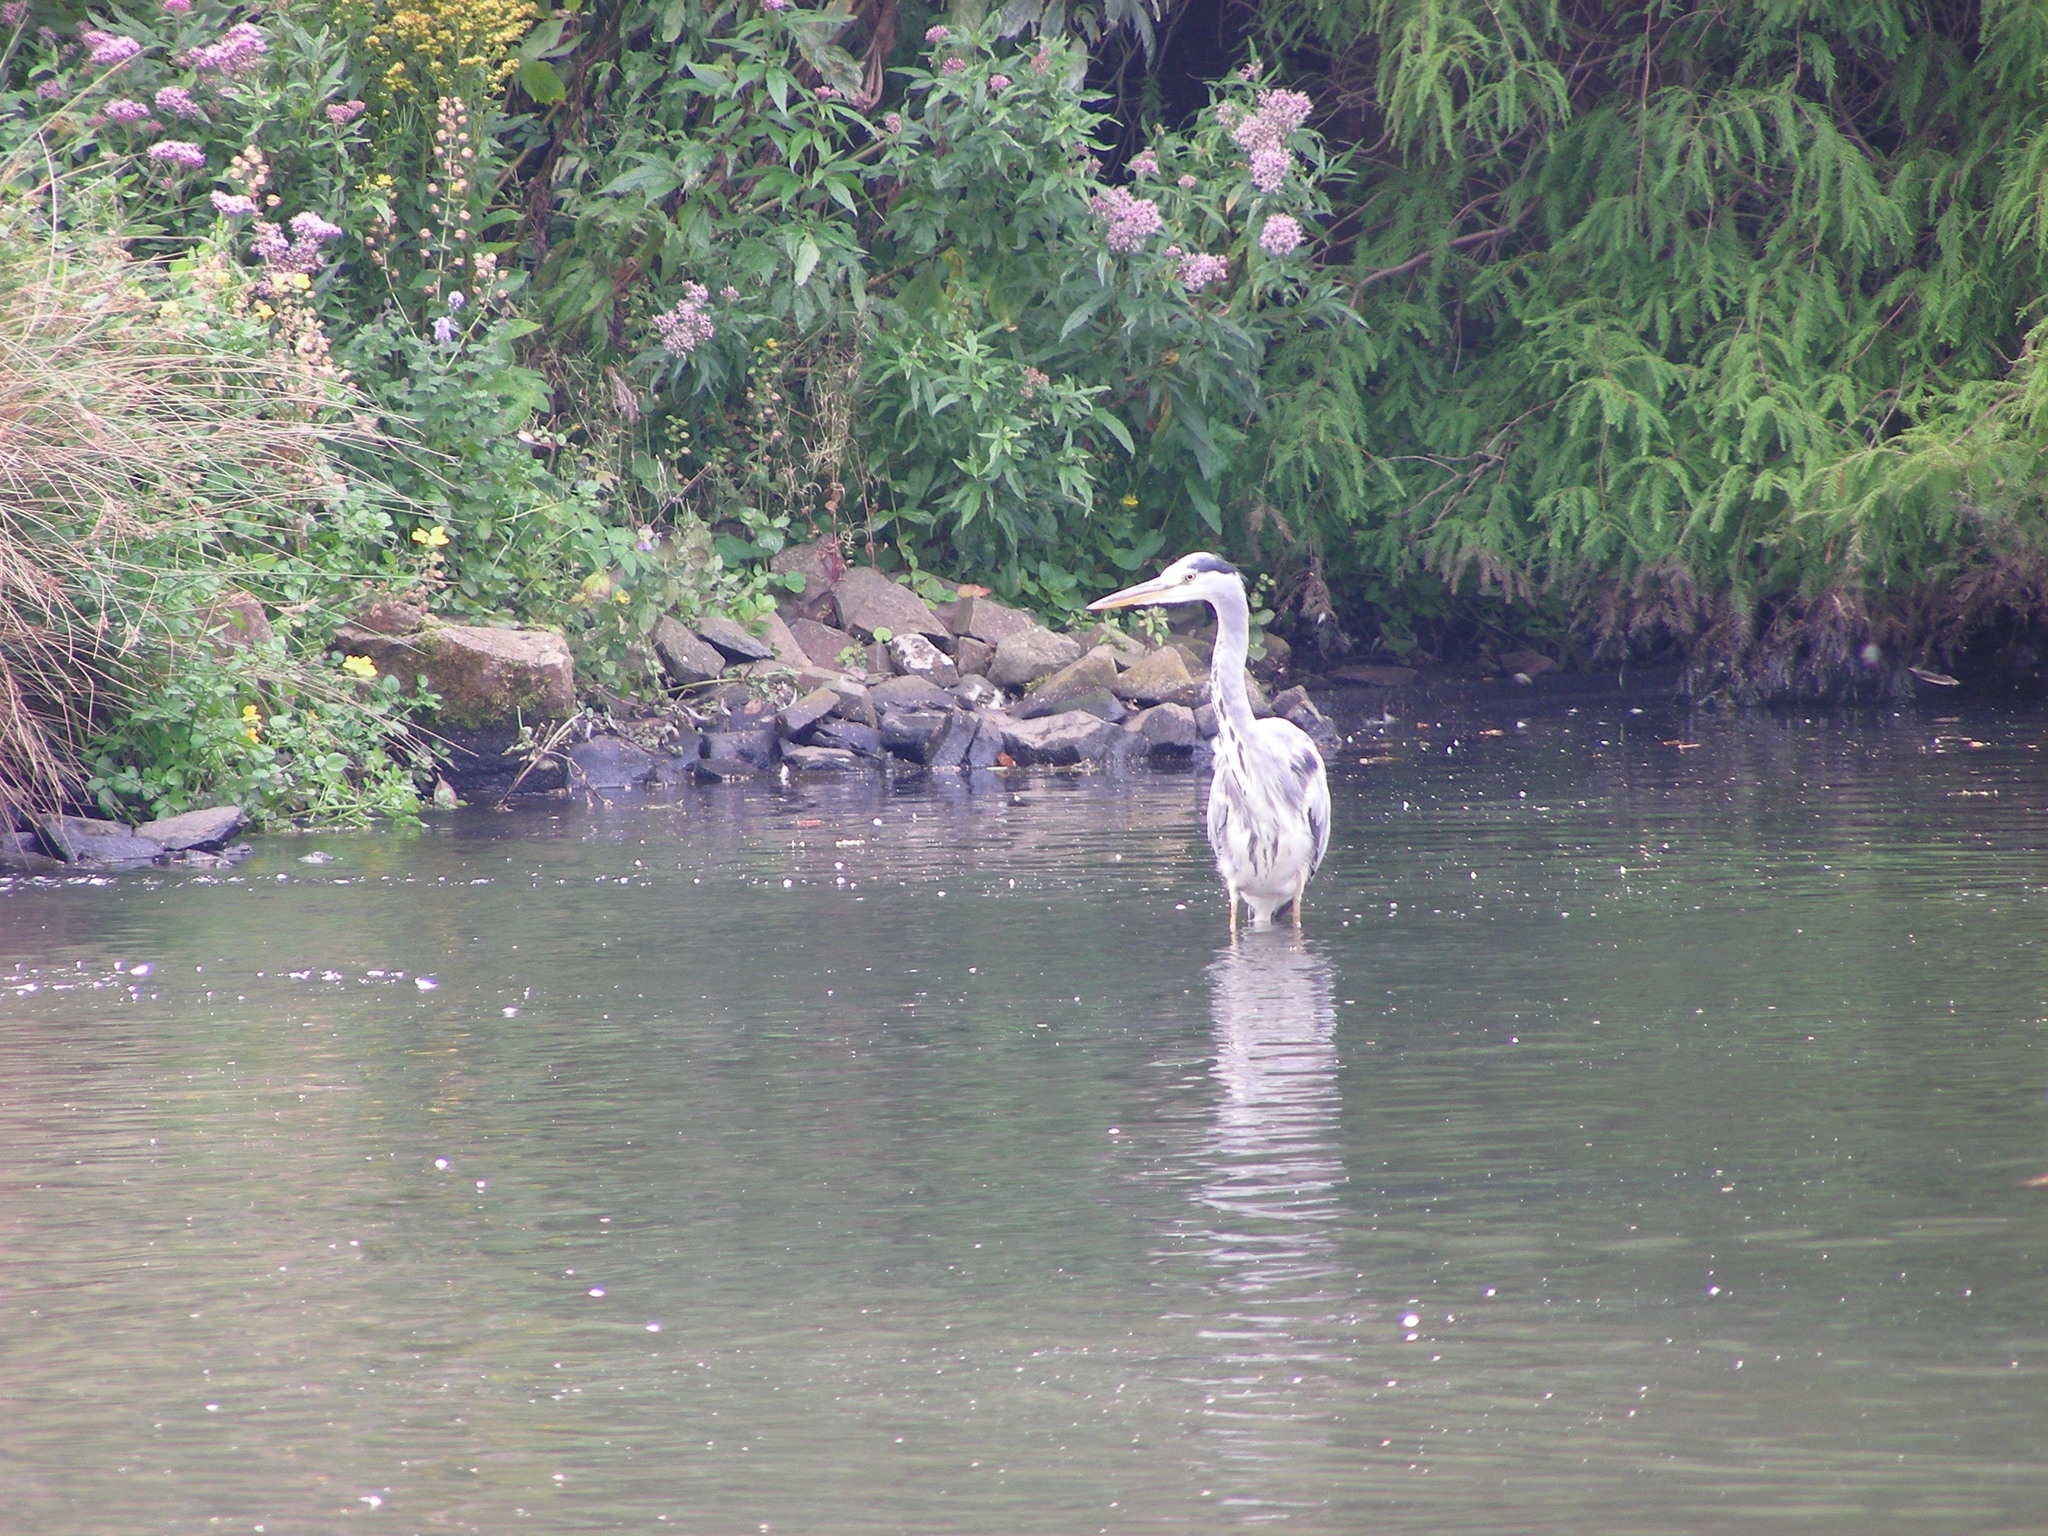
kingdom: Animalia
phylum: Chordata
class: Aves
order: Pelecaniformes
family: Ardeidae
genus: Ardea
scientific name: Ardea cinerea
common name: Grey heron
